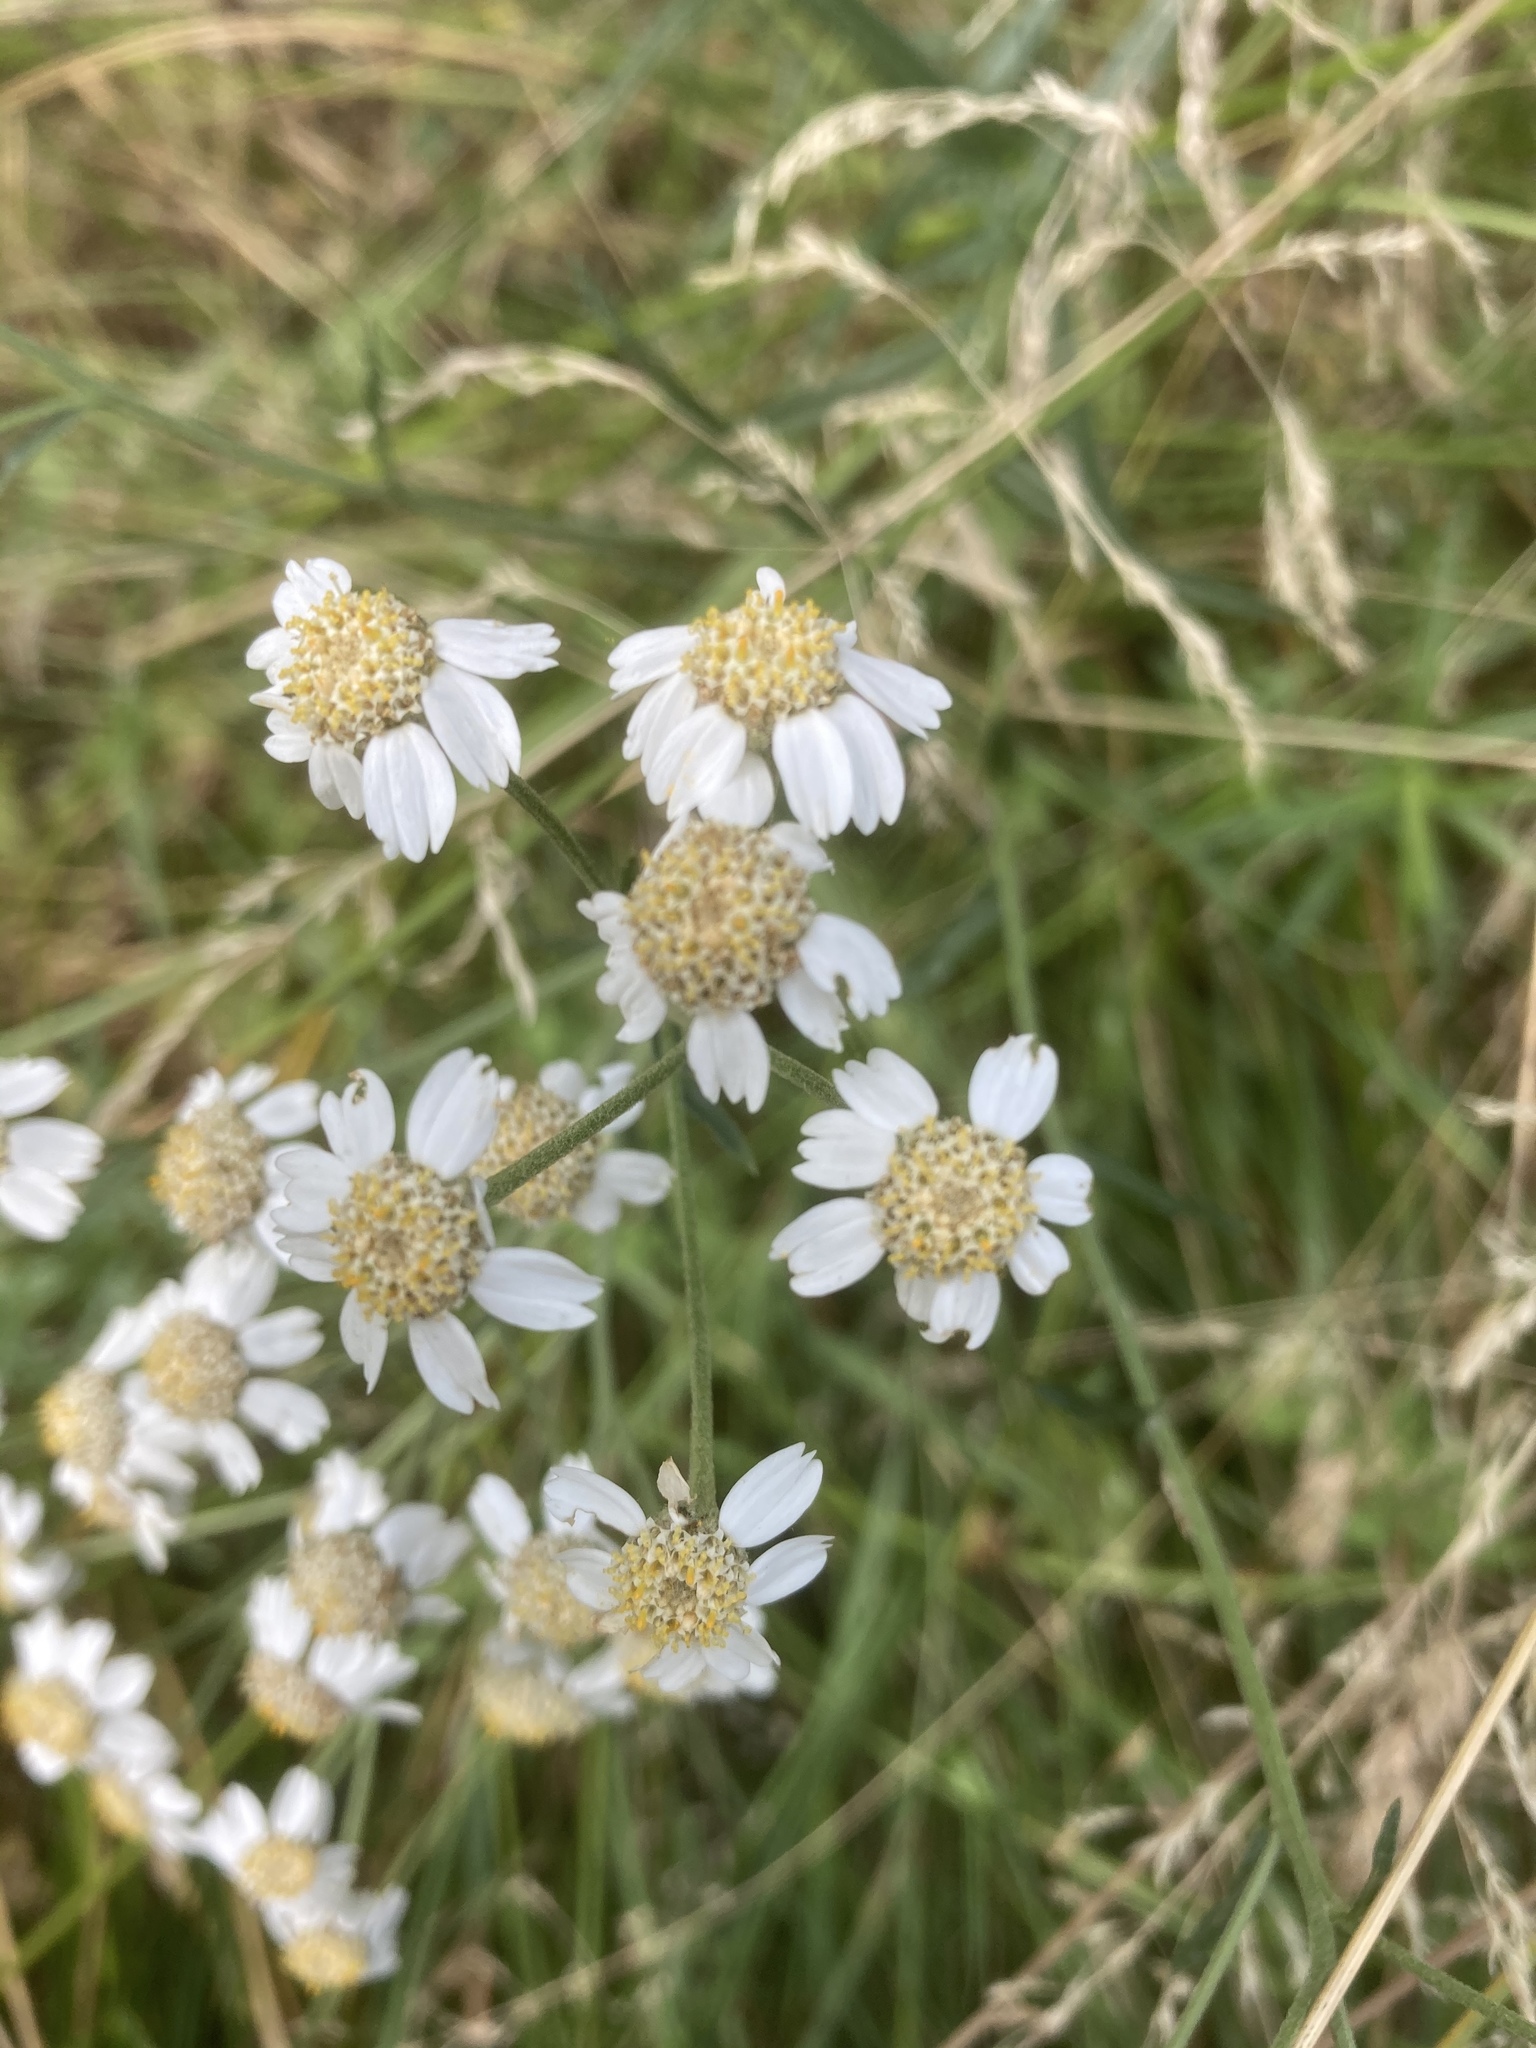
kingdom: Plantae
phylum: Tracheophyta
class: Magnoliopsida
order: Asterales
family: Asteraceae
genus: Achillea
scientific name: Achillea ptarmica
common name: Sneezeweed
